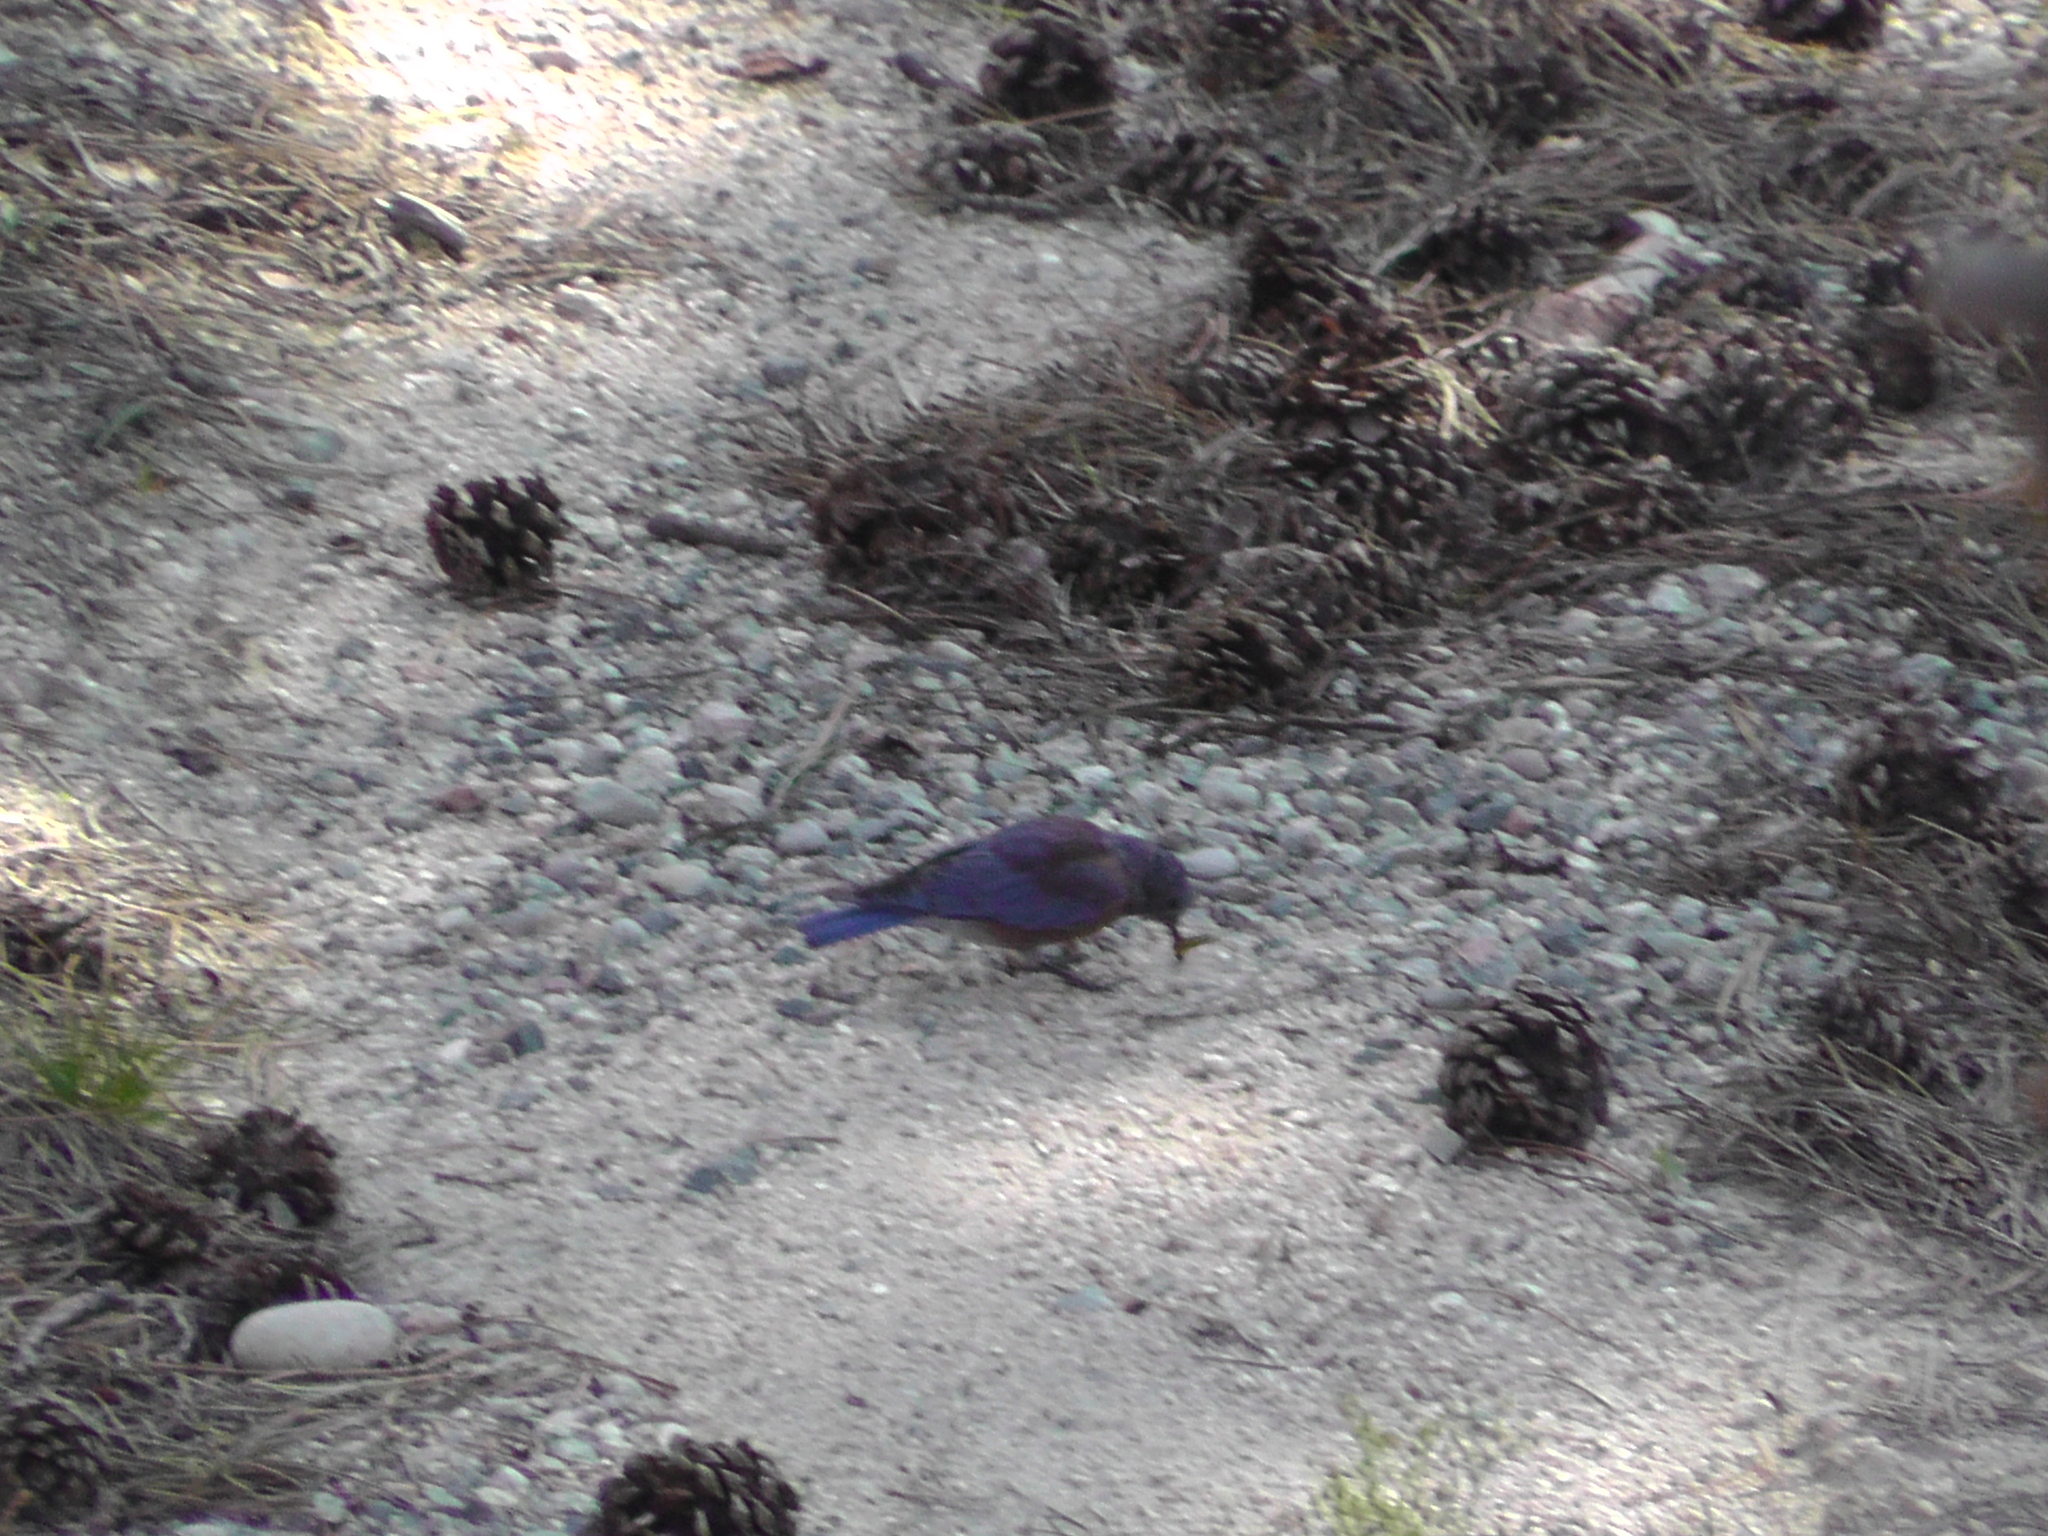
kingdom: Animalia
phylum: Chordata
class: Aves
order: Passeriformes
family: Turdidae
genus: Sialia
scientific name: Sialia mexicana
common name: Western bluebird
